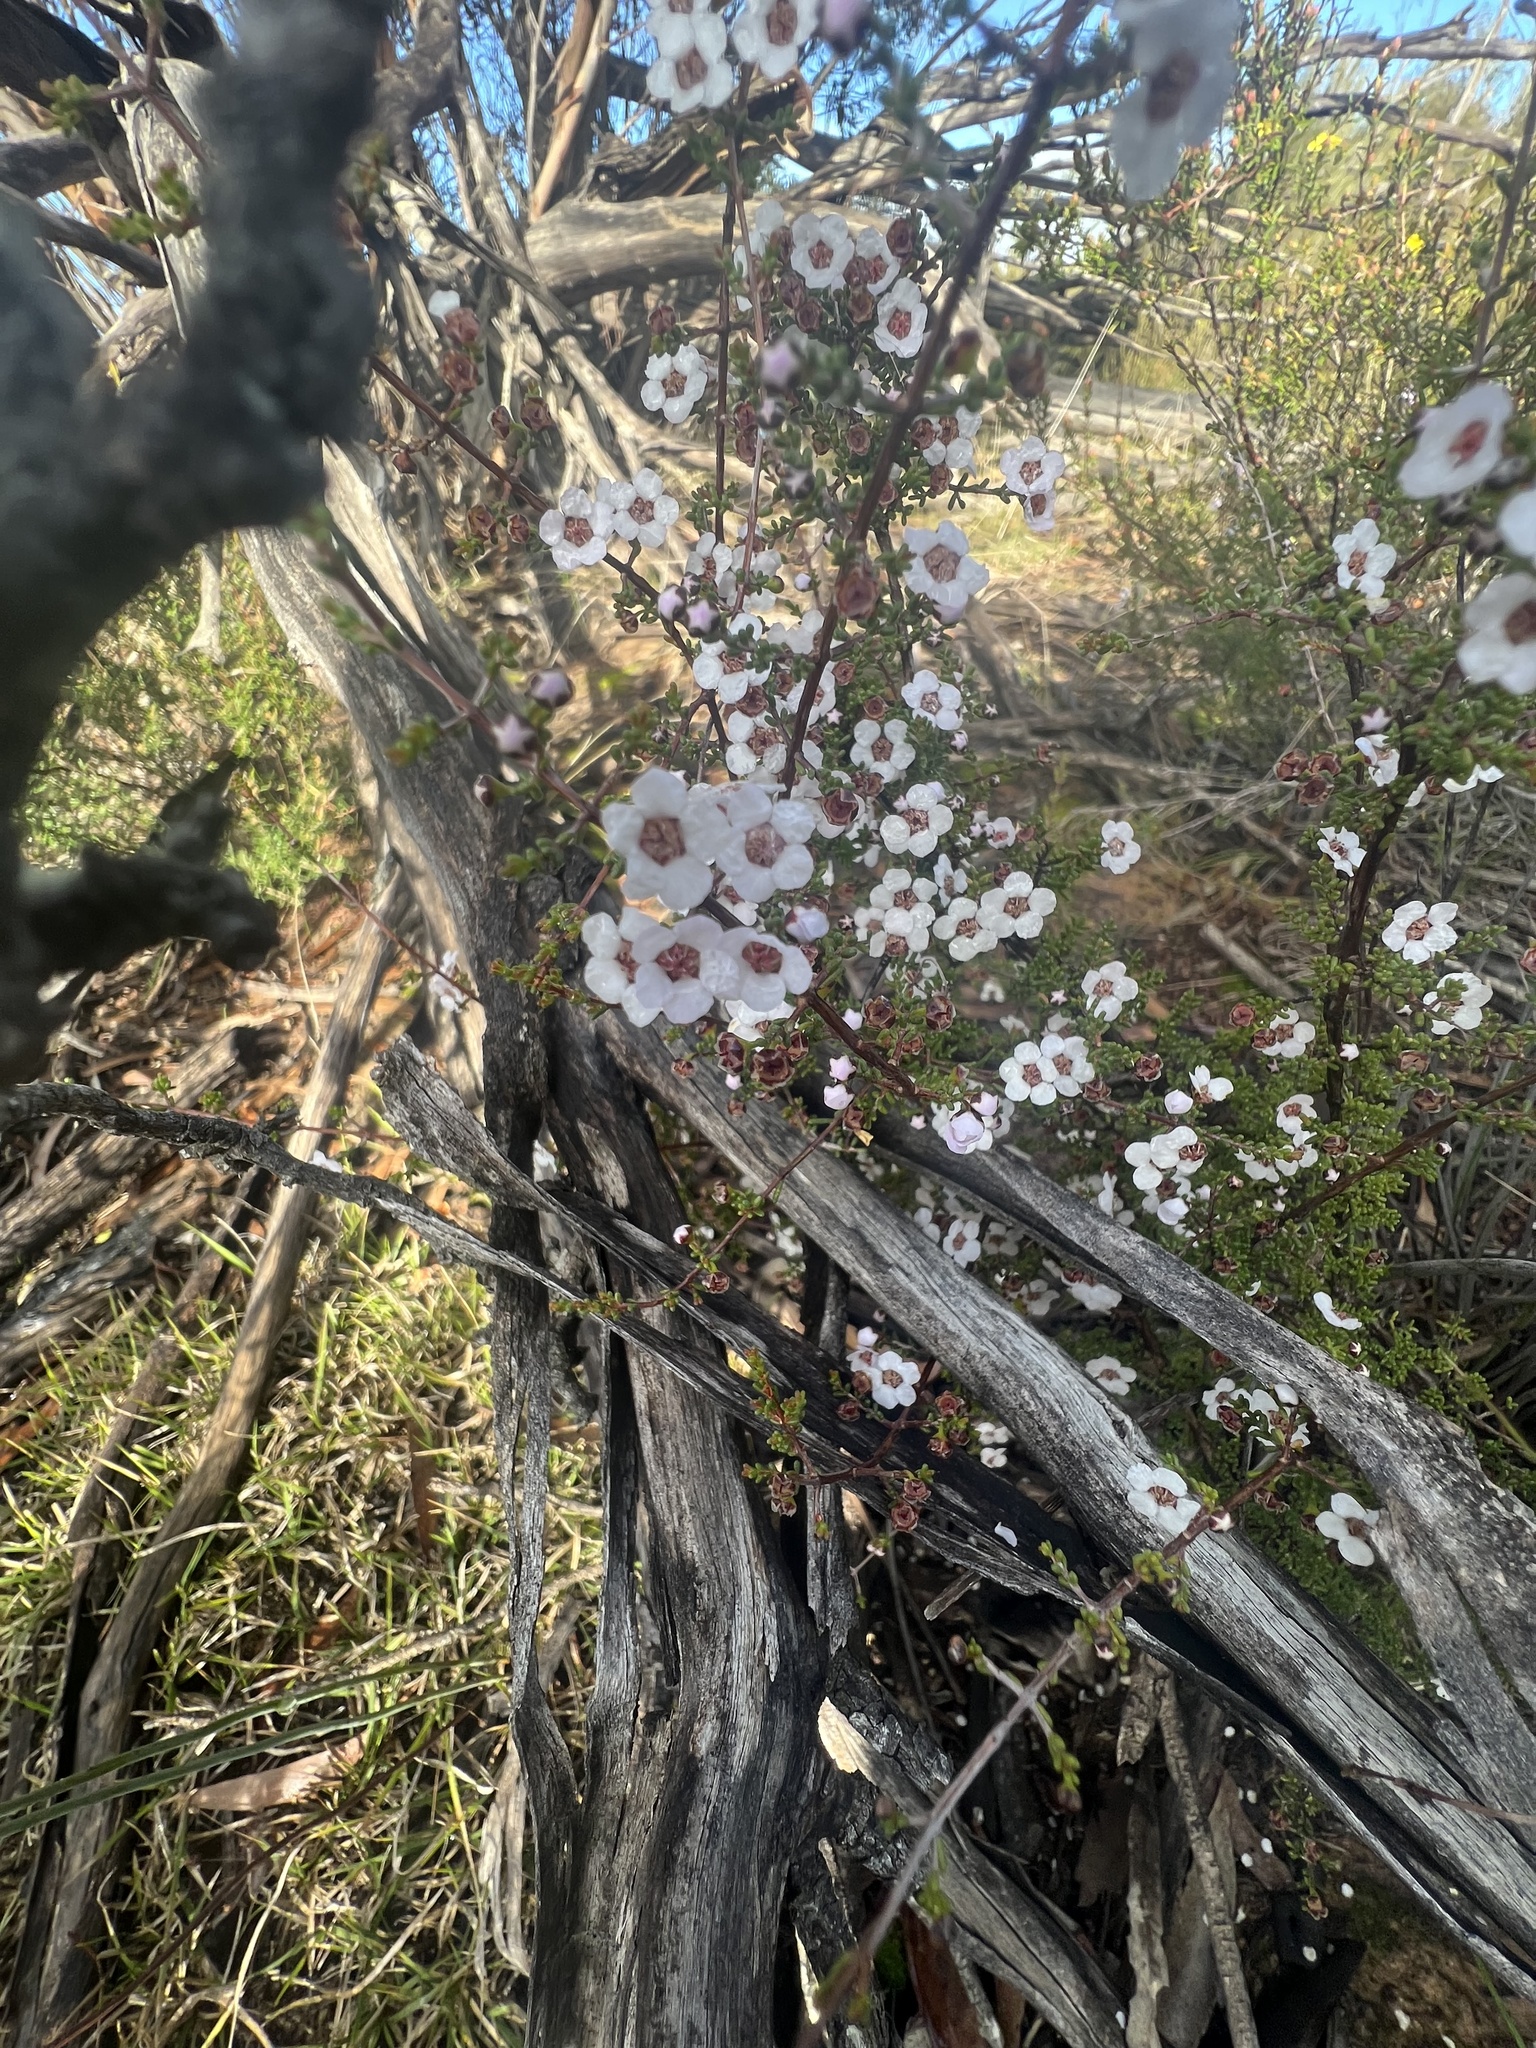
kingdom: Plantae
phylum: Tracheophyta
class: Magnoliopsida
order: Myrtales
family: Myrtaceae
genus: Rinzia
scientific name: Rinzia orientalis
